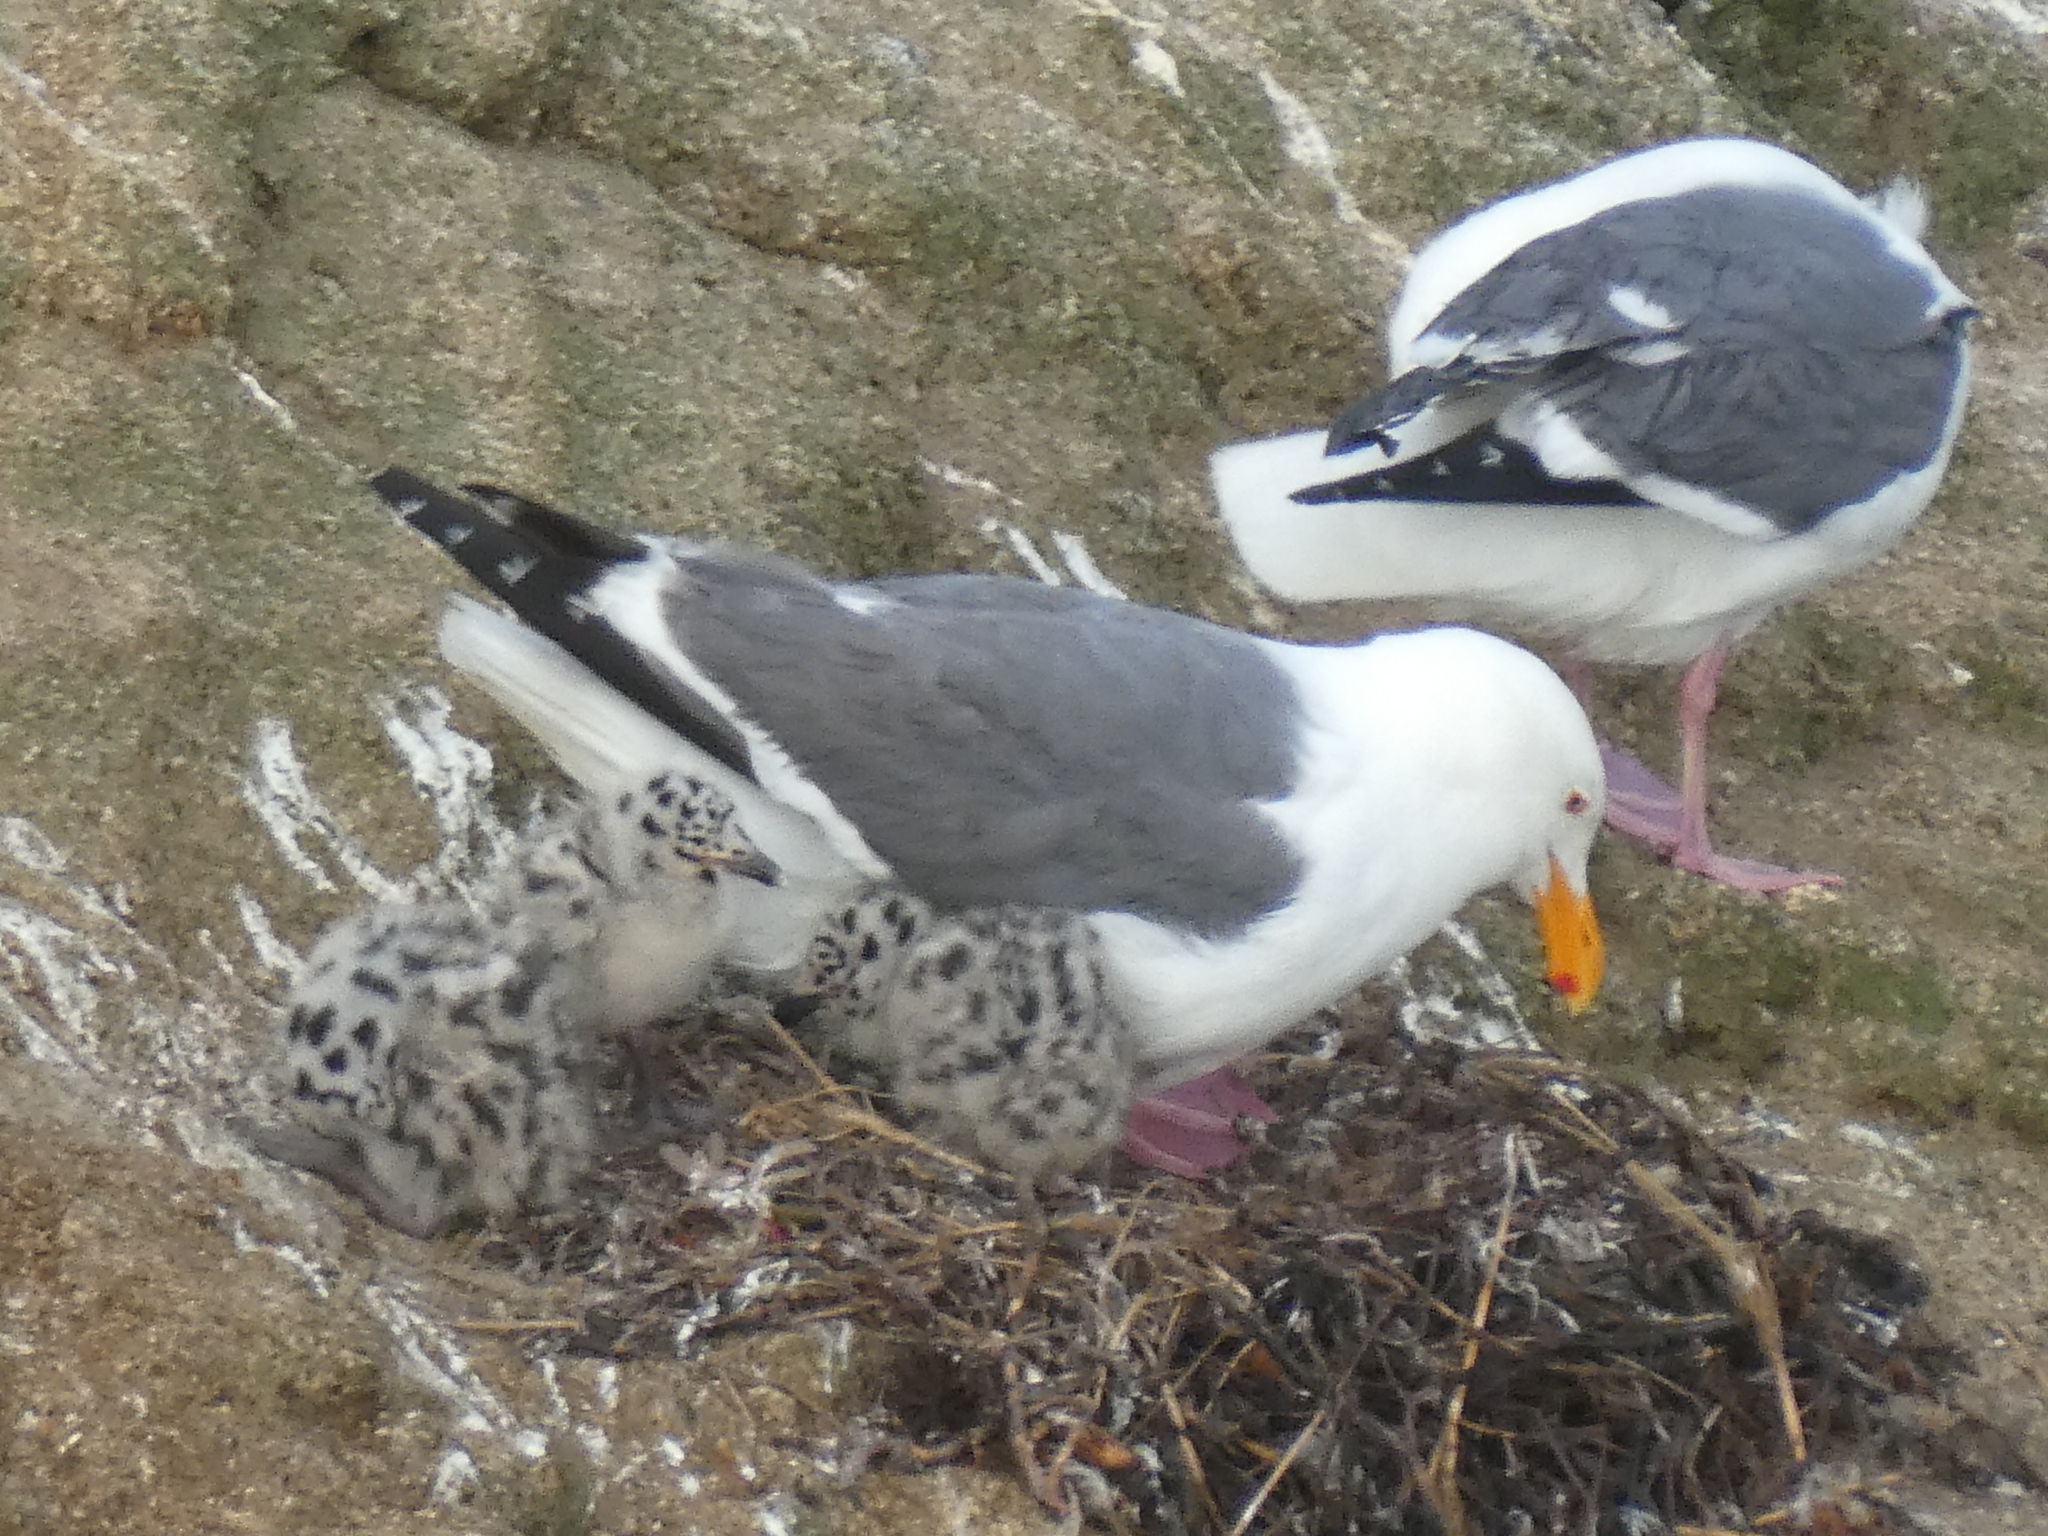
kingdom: Animalia
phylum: Chordata
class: Aves
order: Charadriiformes
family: Laridae
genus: Larus
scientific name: Larus occidentalis
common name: Western gull
